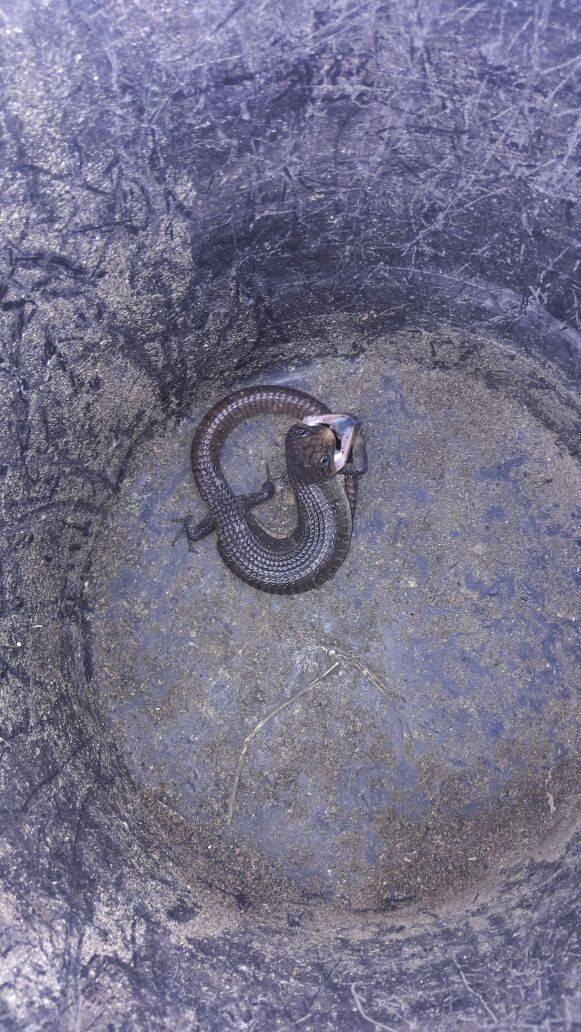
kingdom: Animalia
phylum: Chordata
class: Squamata
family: Anguidae
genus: Barisia
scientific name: Barisia ciliaris
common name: Imbricate alligator lizard
